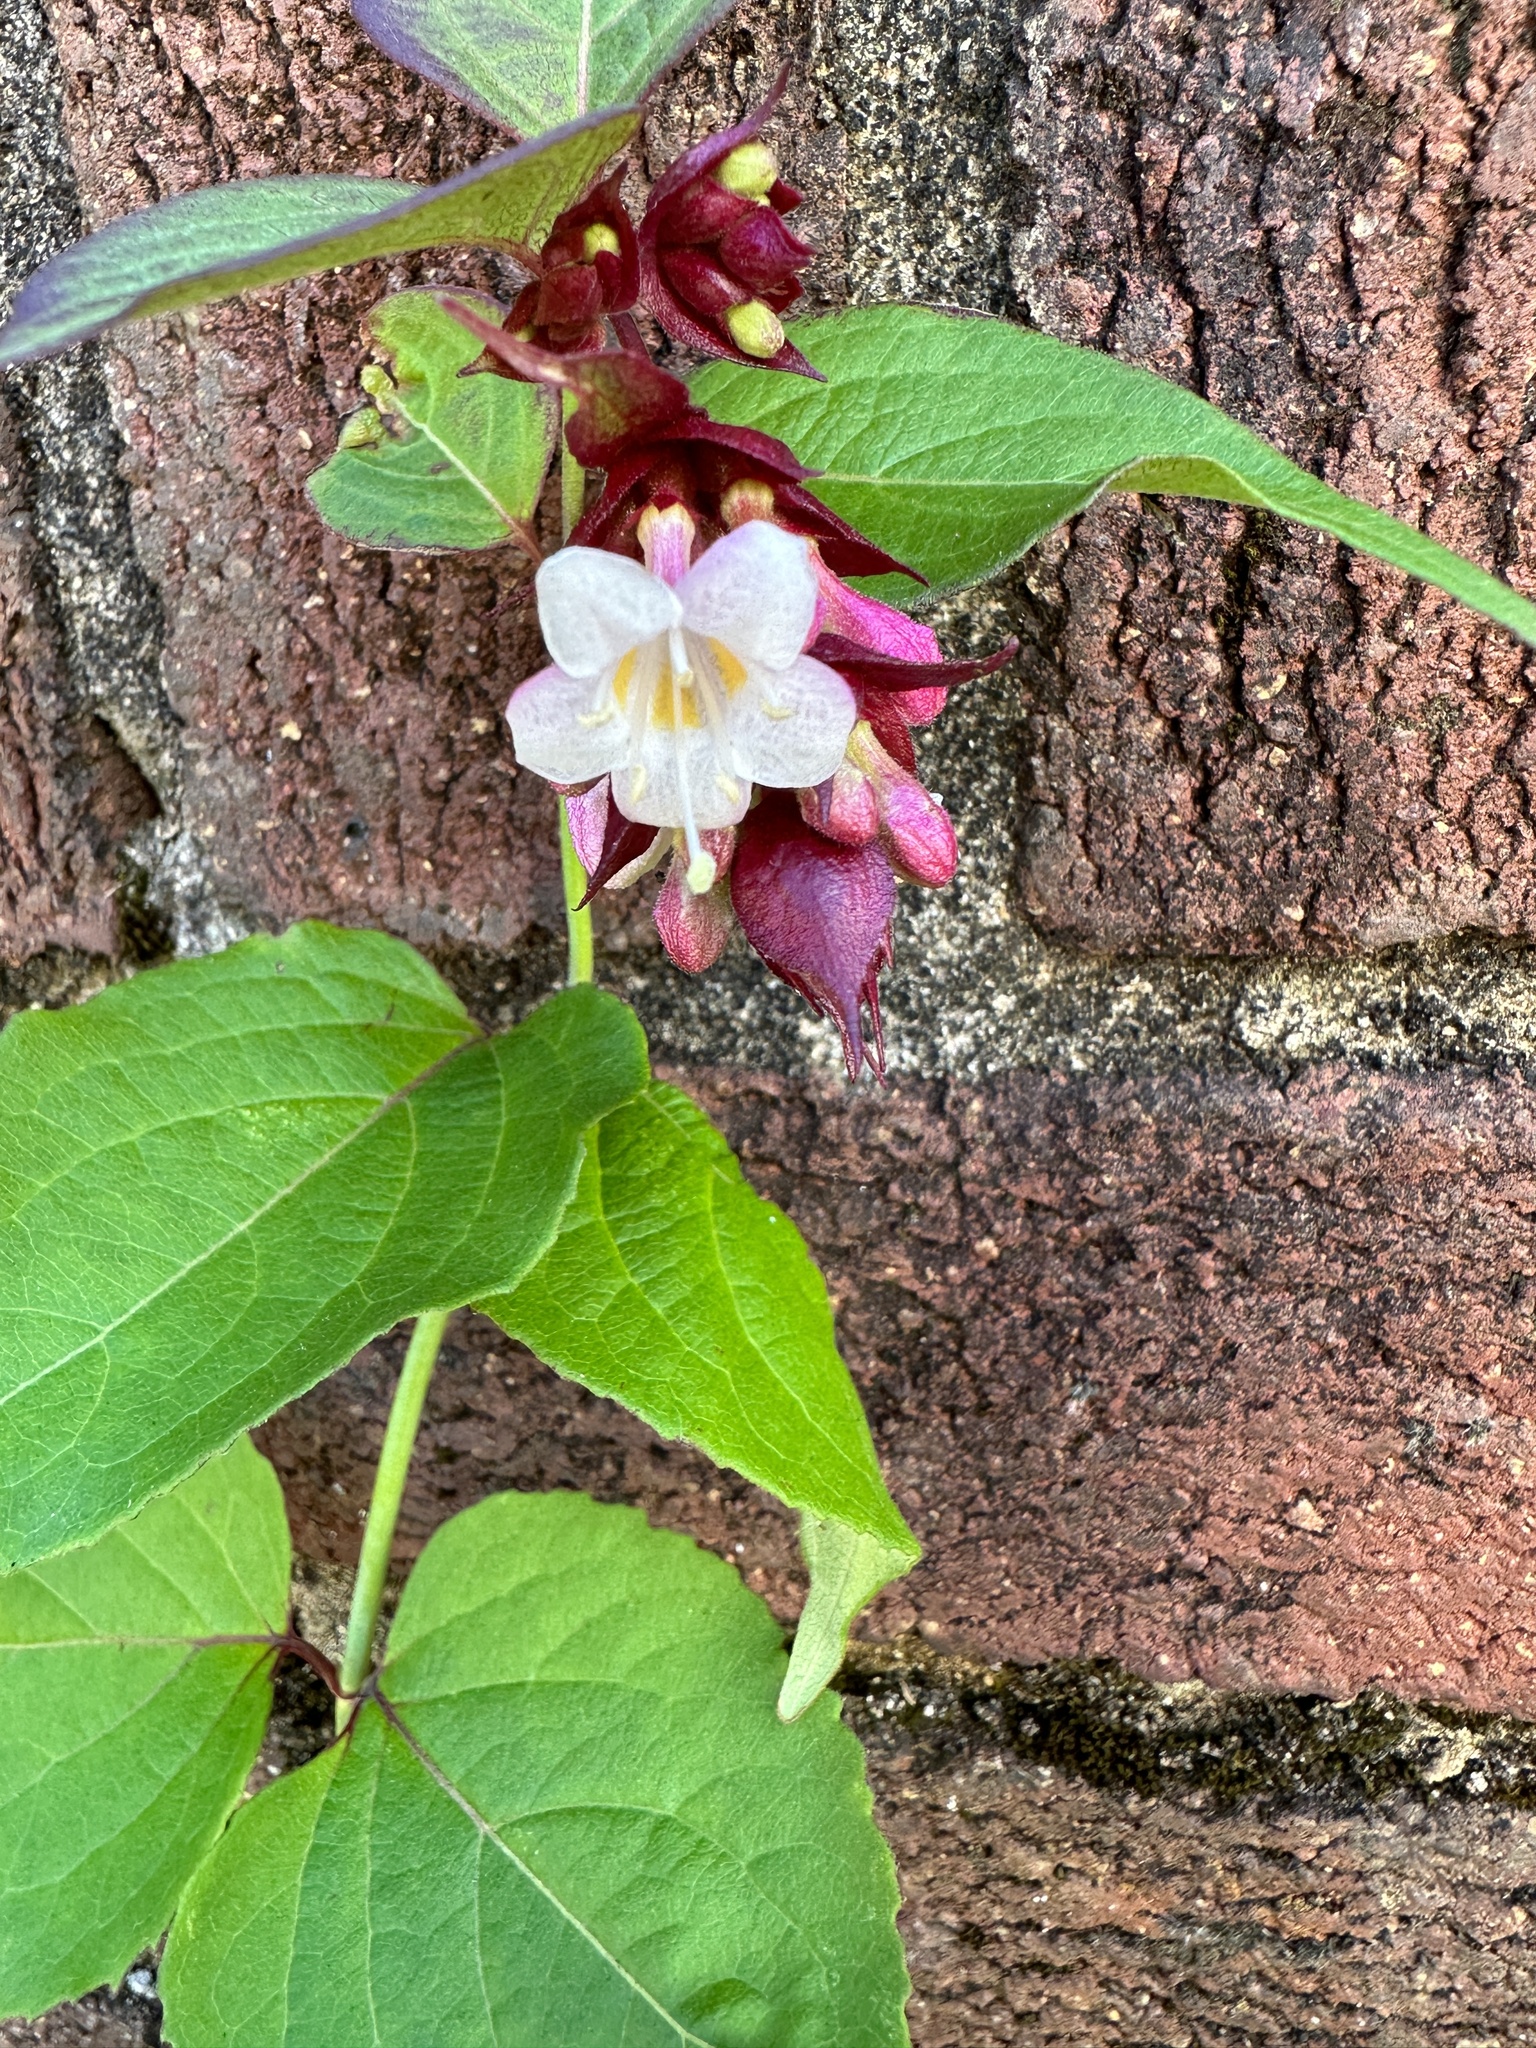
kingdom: Plantae
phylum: Tracheophyta
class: Magnoliopsida
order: Dipsacales
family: Caprifoliaceae
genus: Leycesteria
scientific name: Leycesteria formosa
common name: Himalayan honeysuckle
